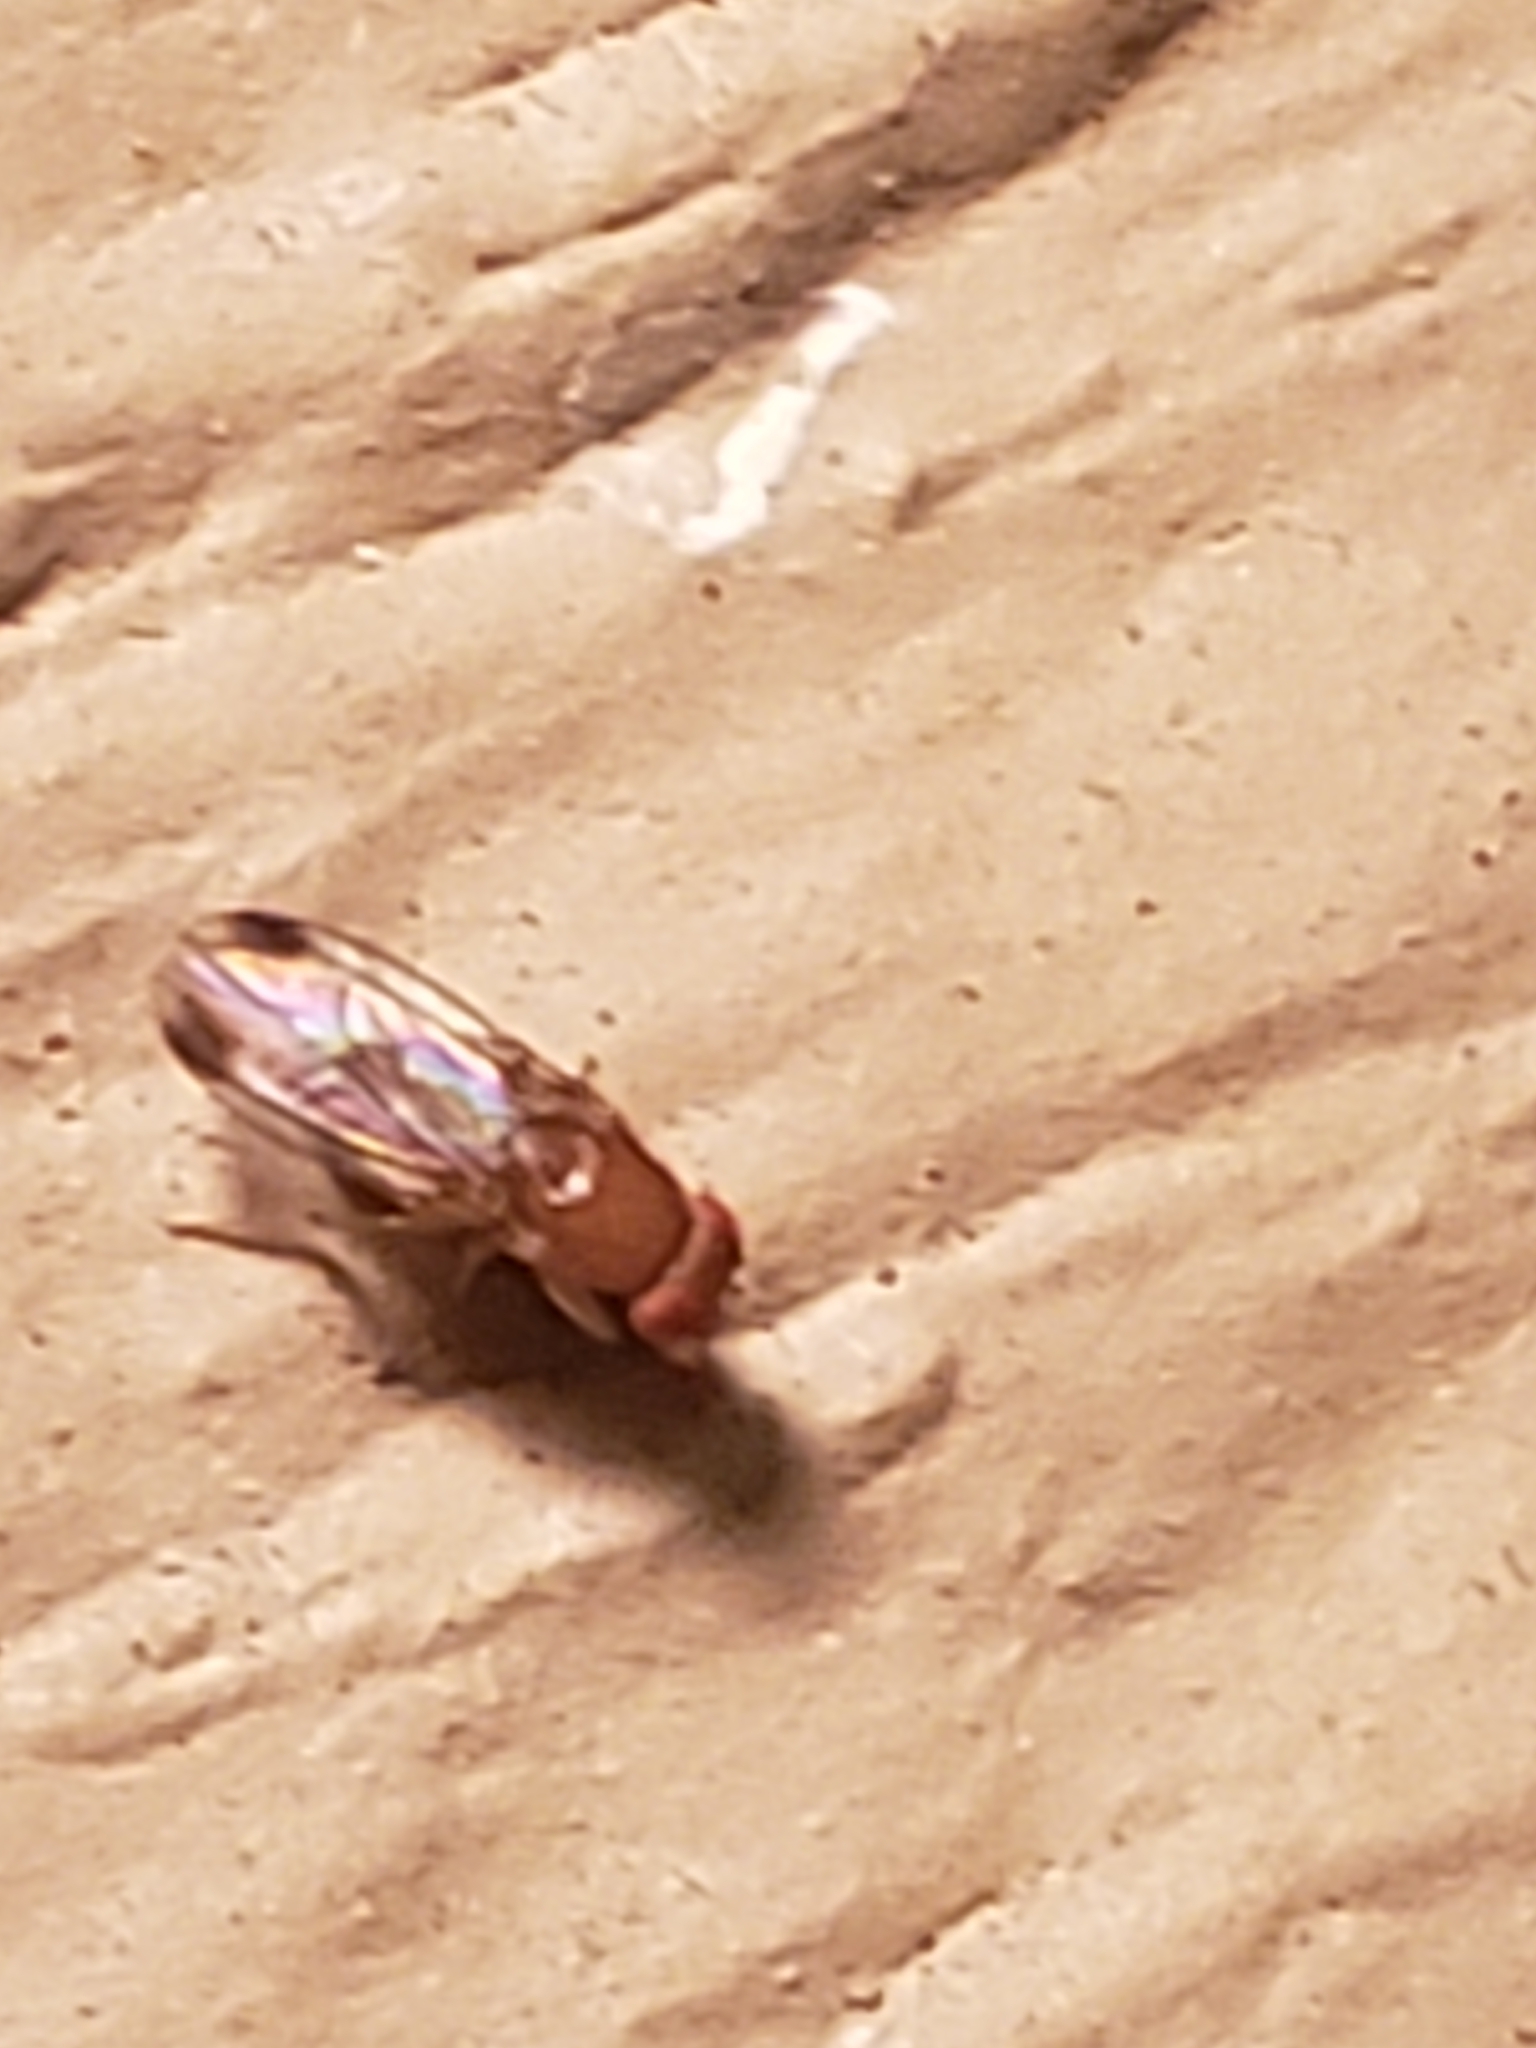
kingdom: Animalia
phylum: Arthropoda
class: Insecta
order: Diptera
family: Drosophilidae
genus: Drosophila
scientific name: Drosophila suzukii
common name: Spotted-wing drosophila
